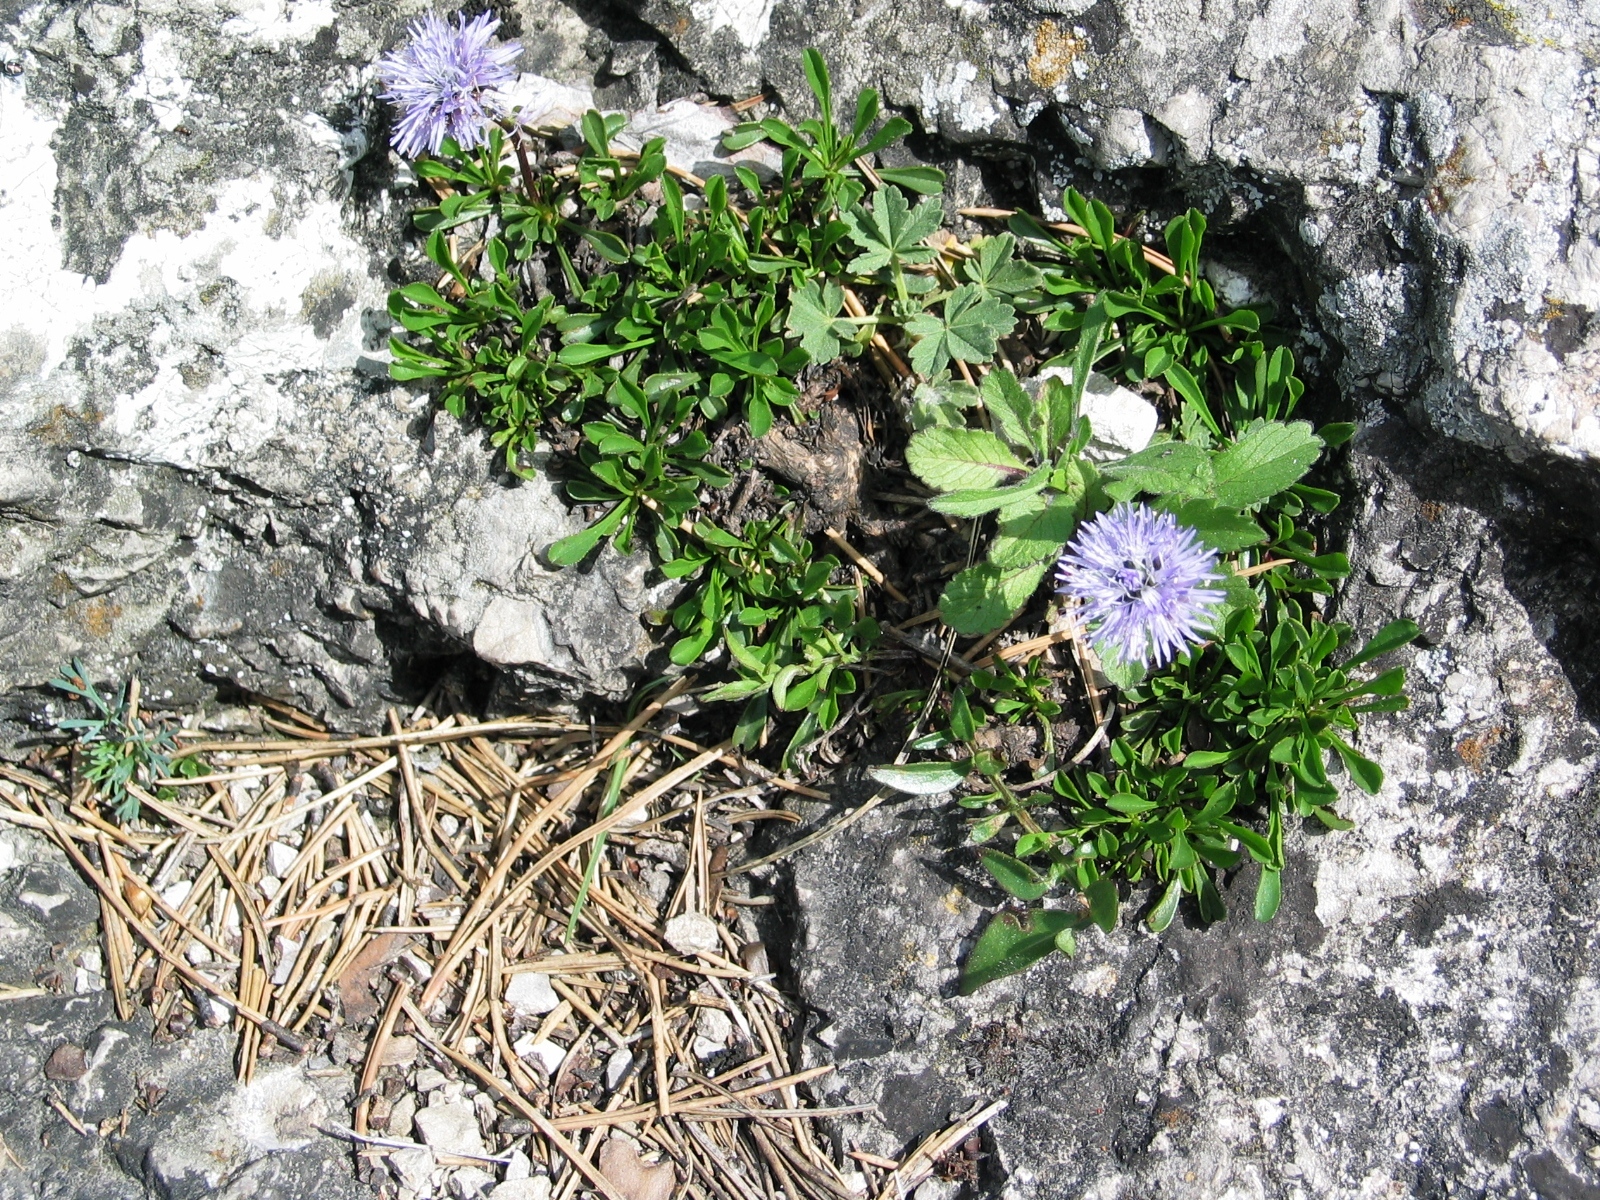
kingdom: Plantae
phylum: Tracheophyta
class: Magnoliopsida
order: Lamiales
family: Plantaginaceae
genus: Globularia
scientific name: Globularia cordifolia
